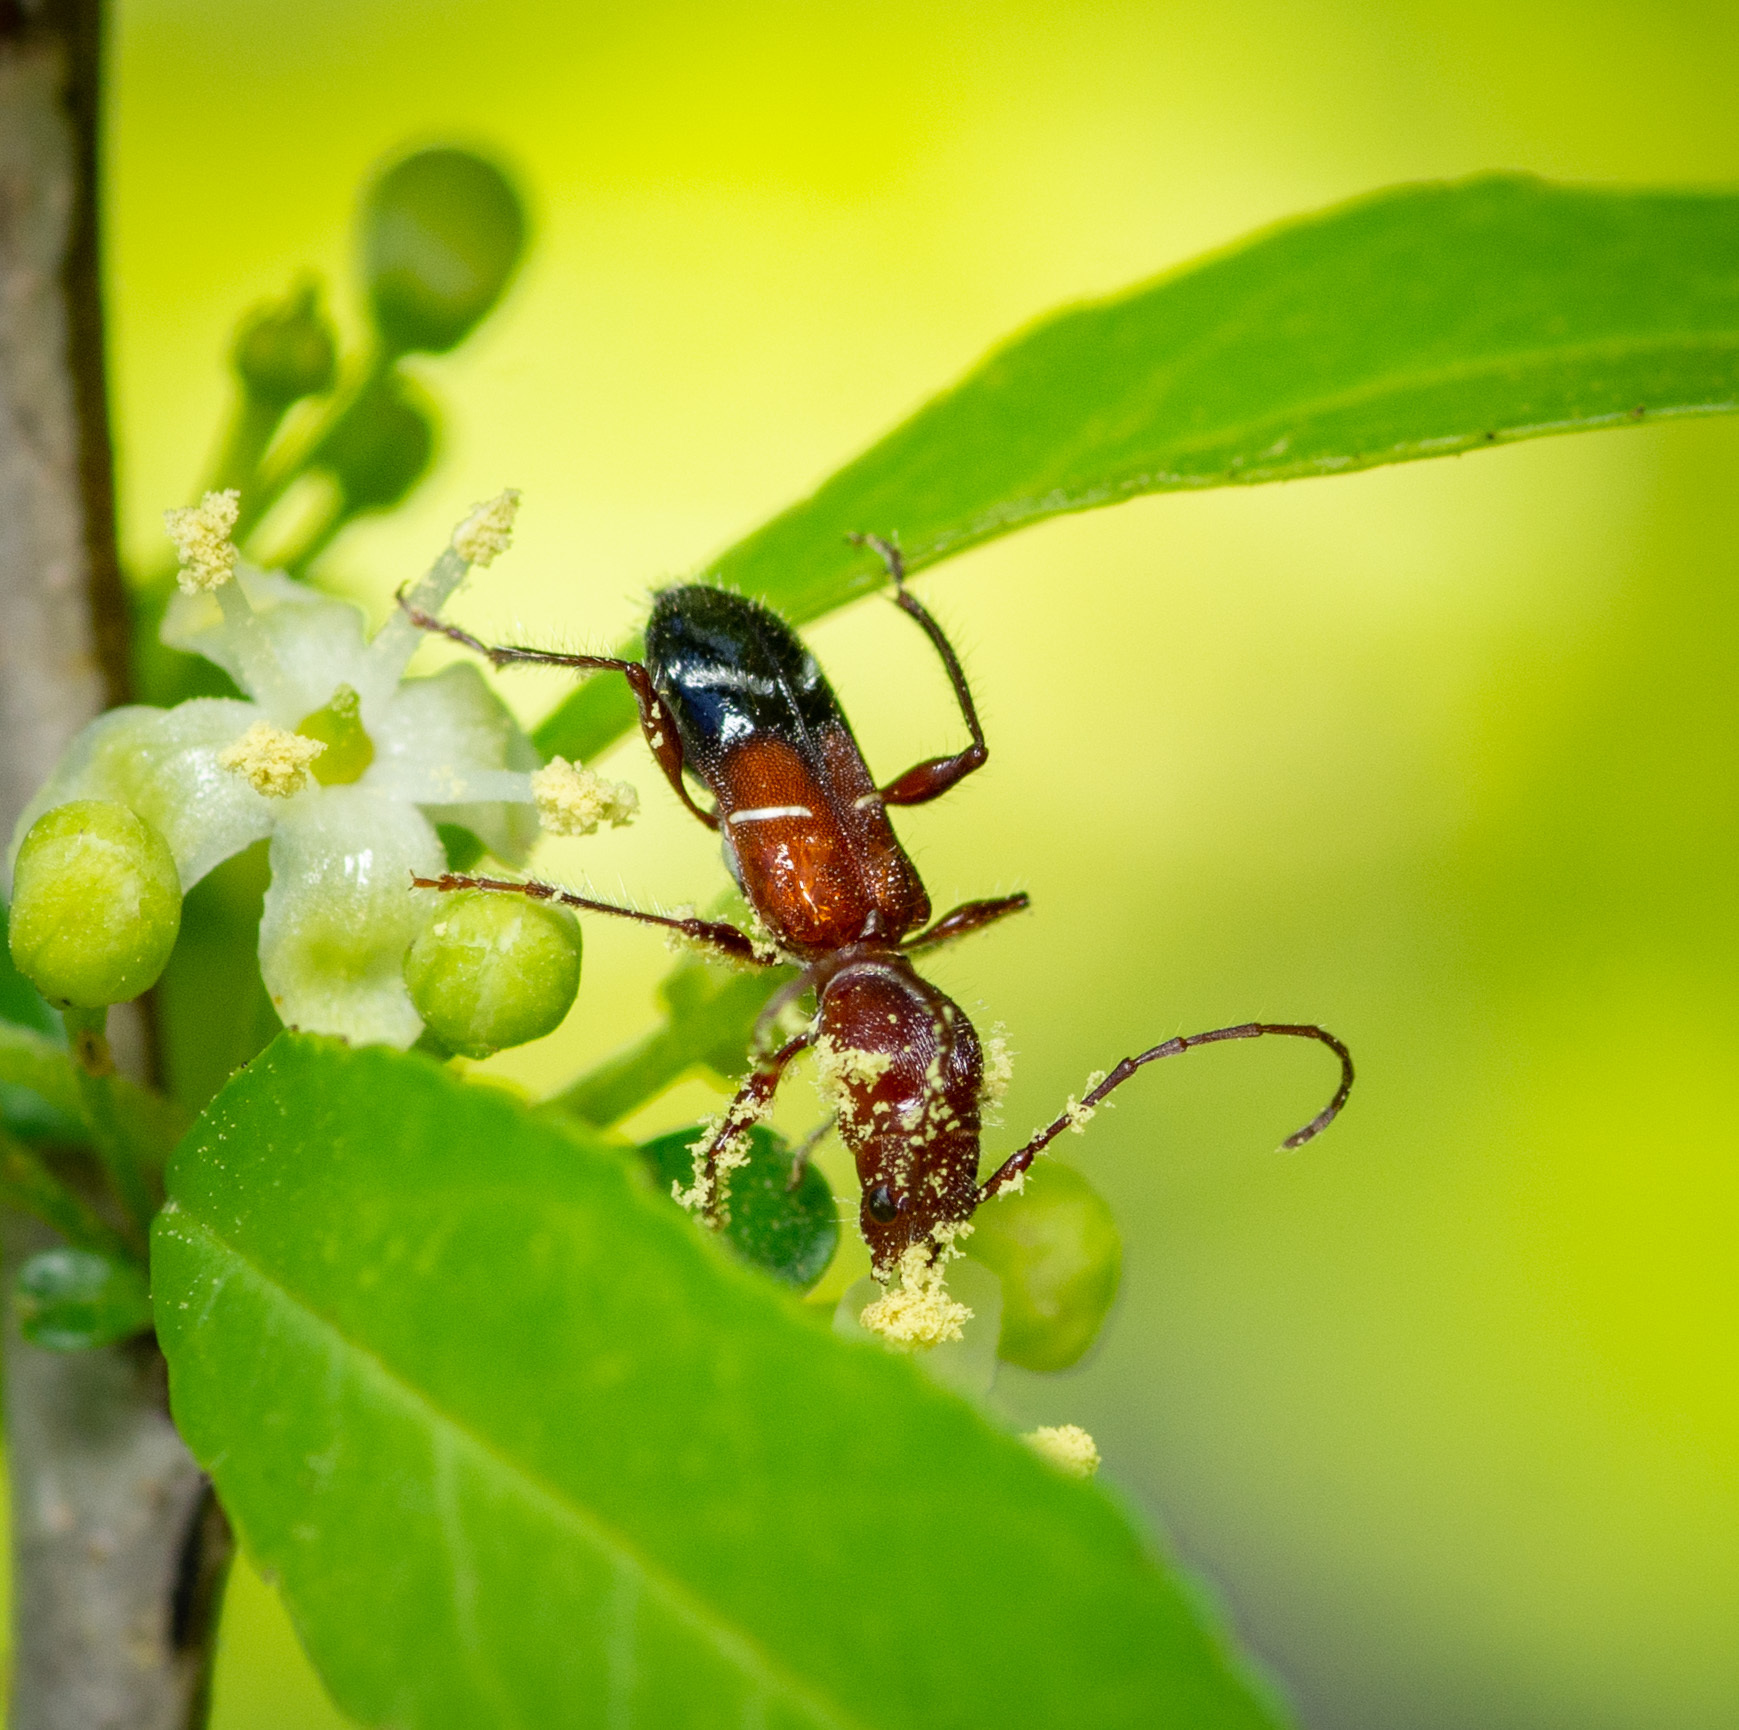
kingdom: Animalia
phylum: Arthropoda
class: Insecta
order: Coleoptera
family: Cerambycidae
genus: Euderces
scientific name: Euderces pini
